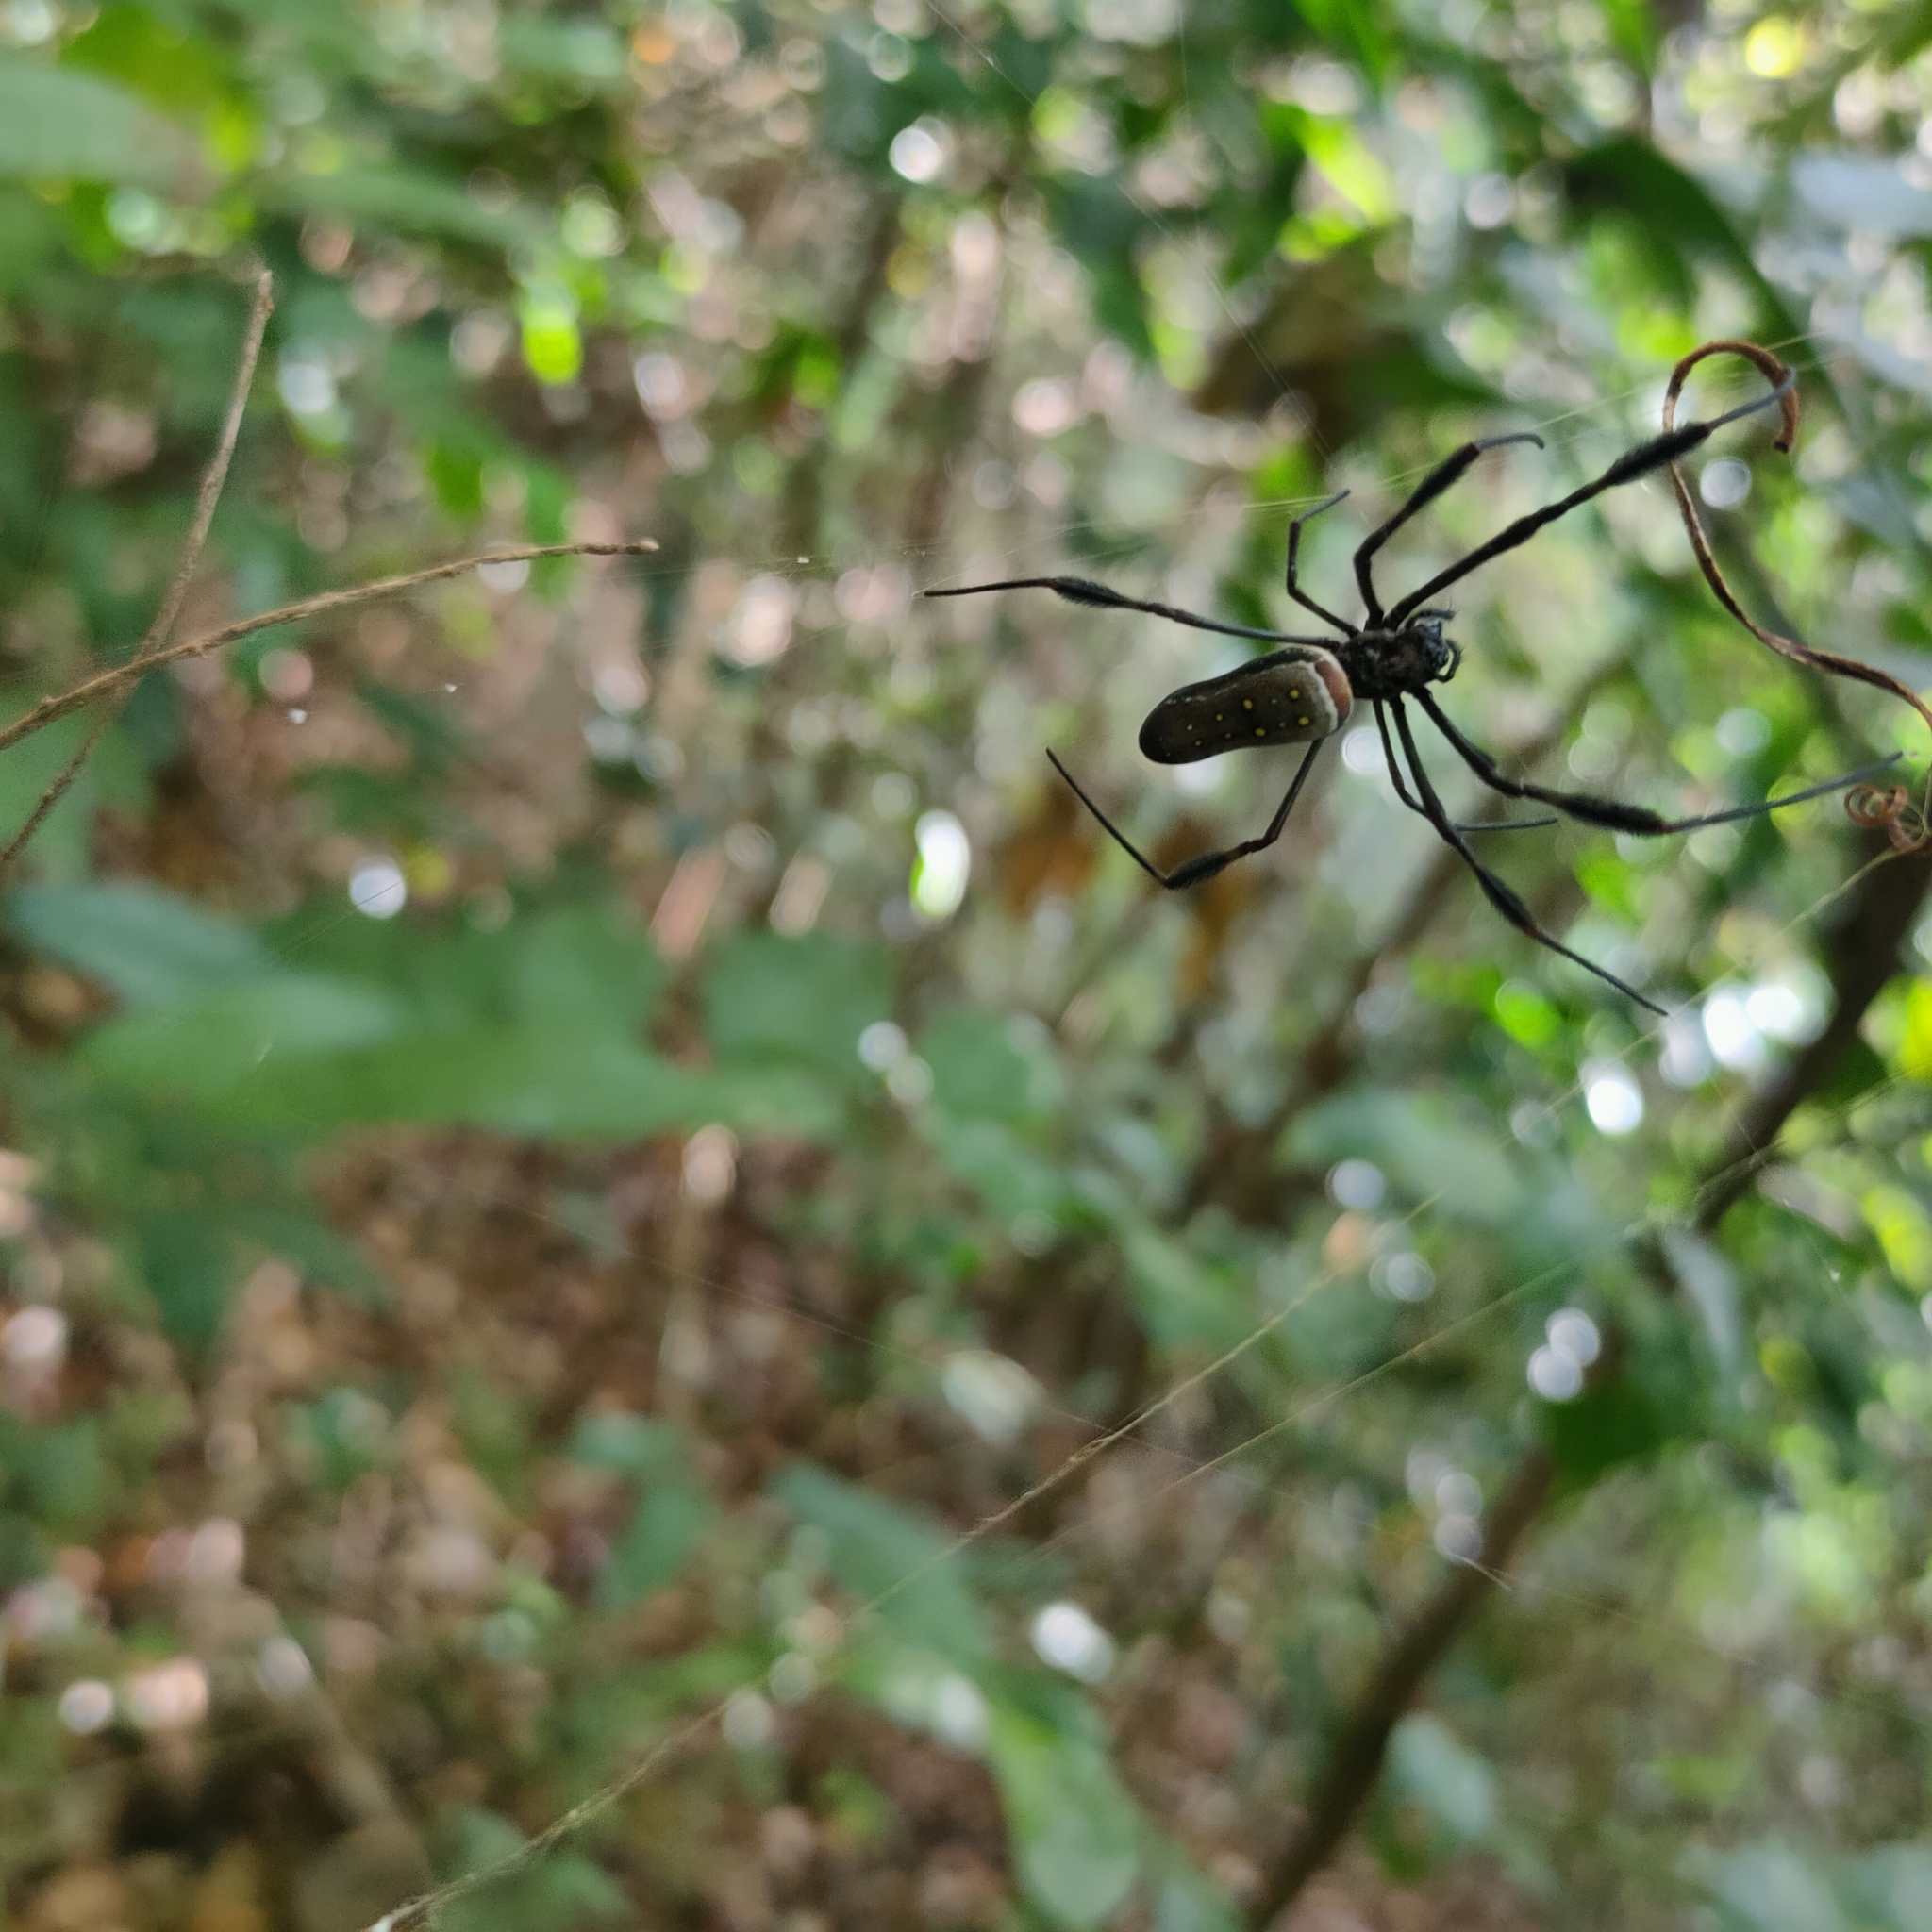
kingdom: Animalia
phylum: Arthropoda
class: Arachnida
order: Araneae
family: Araneidae
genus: Trichonephila
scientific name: Trichonephila clavipes
